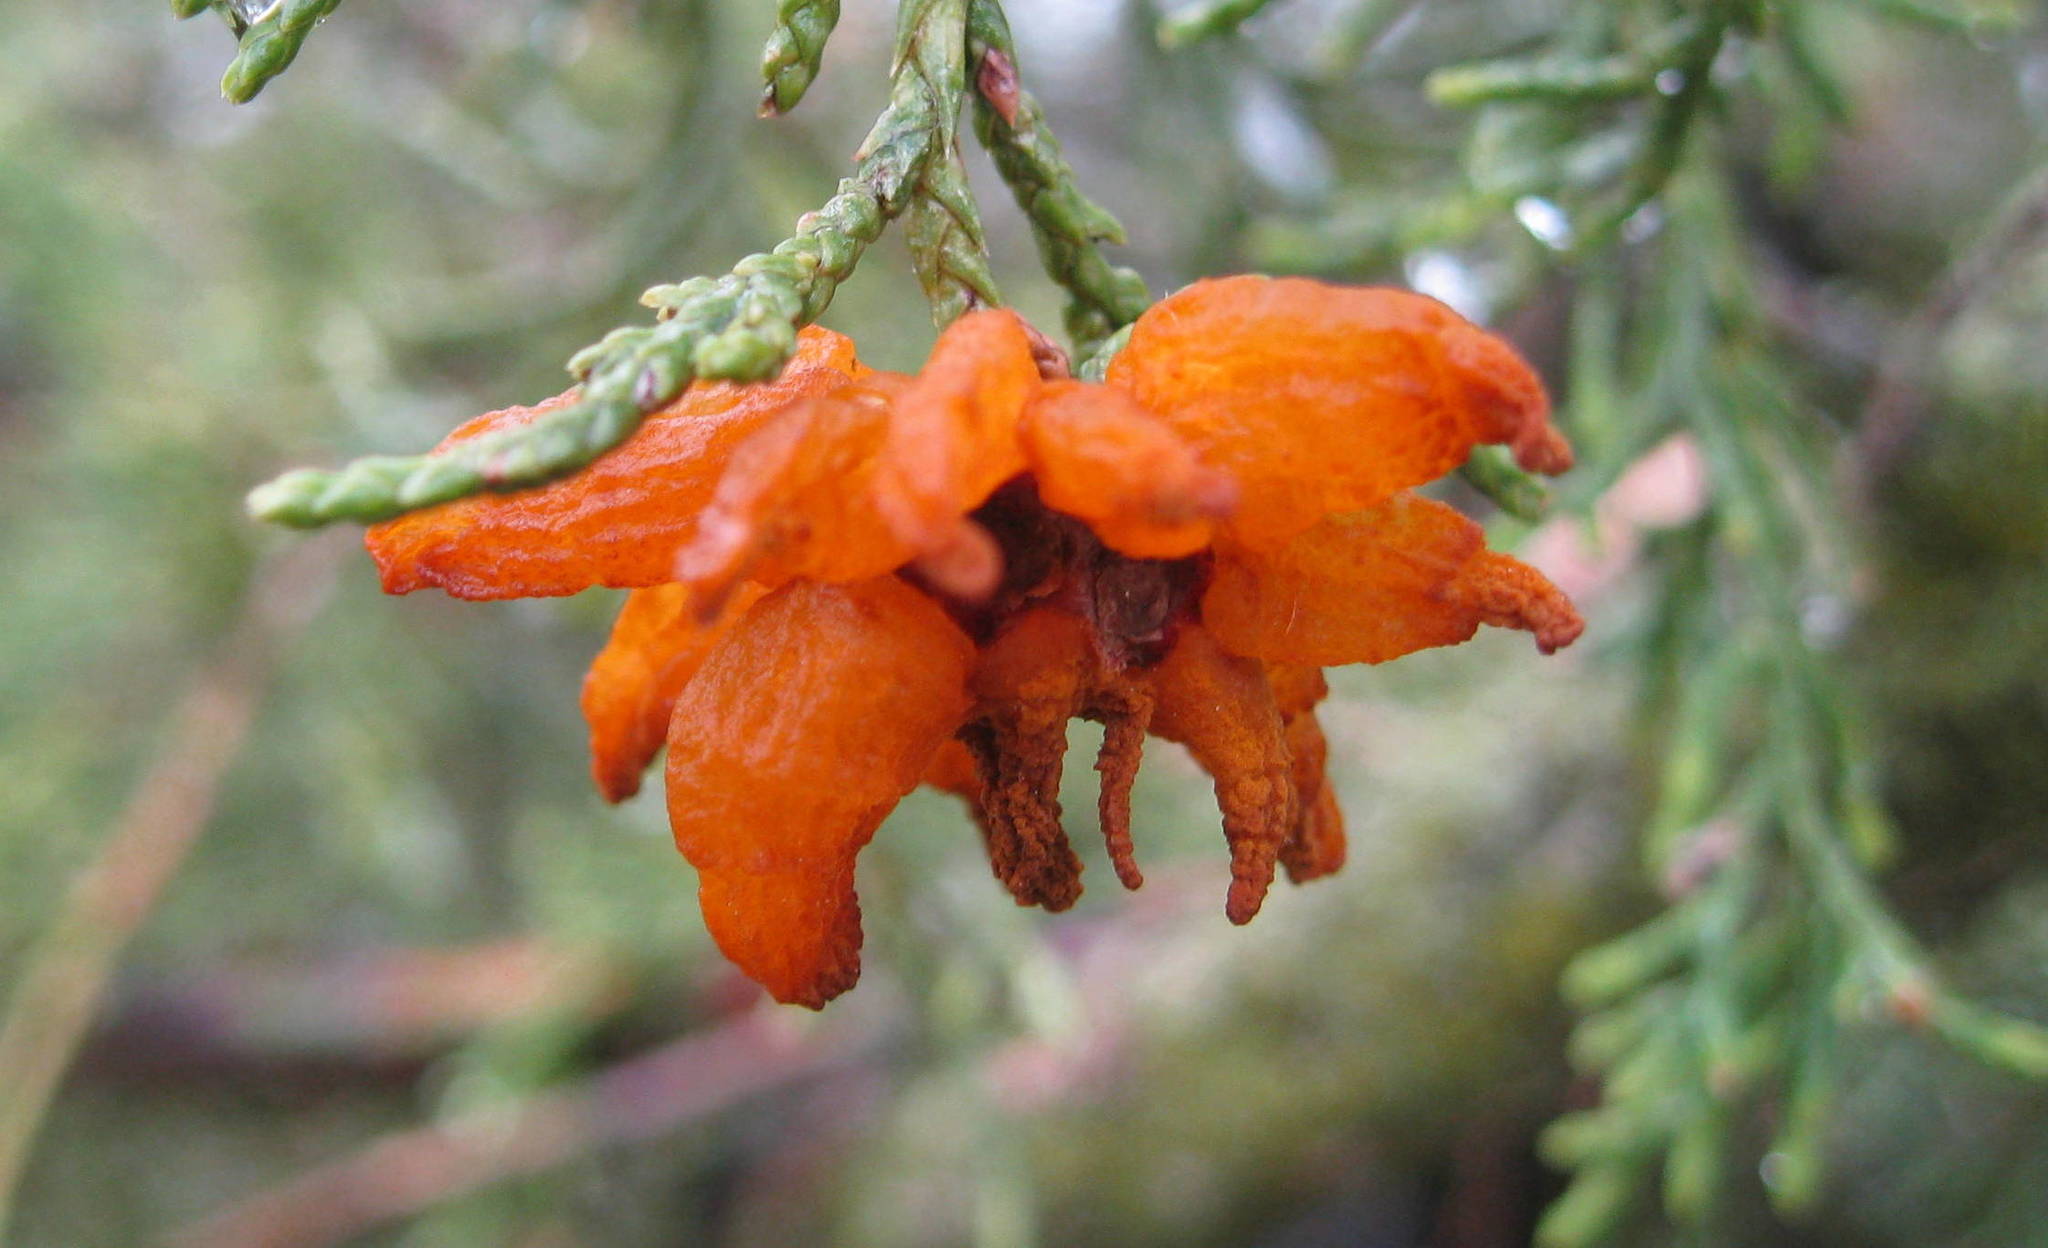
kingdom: Fungi
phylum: Basidiomycota
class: Pucciniomycetes
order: Pucciniales
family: Gymnosporangiaceae
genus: Gymnosporangium
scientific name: Gymnosporangium juniperi-virginianae
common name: Juniper-apple rust
